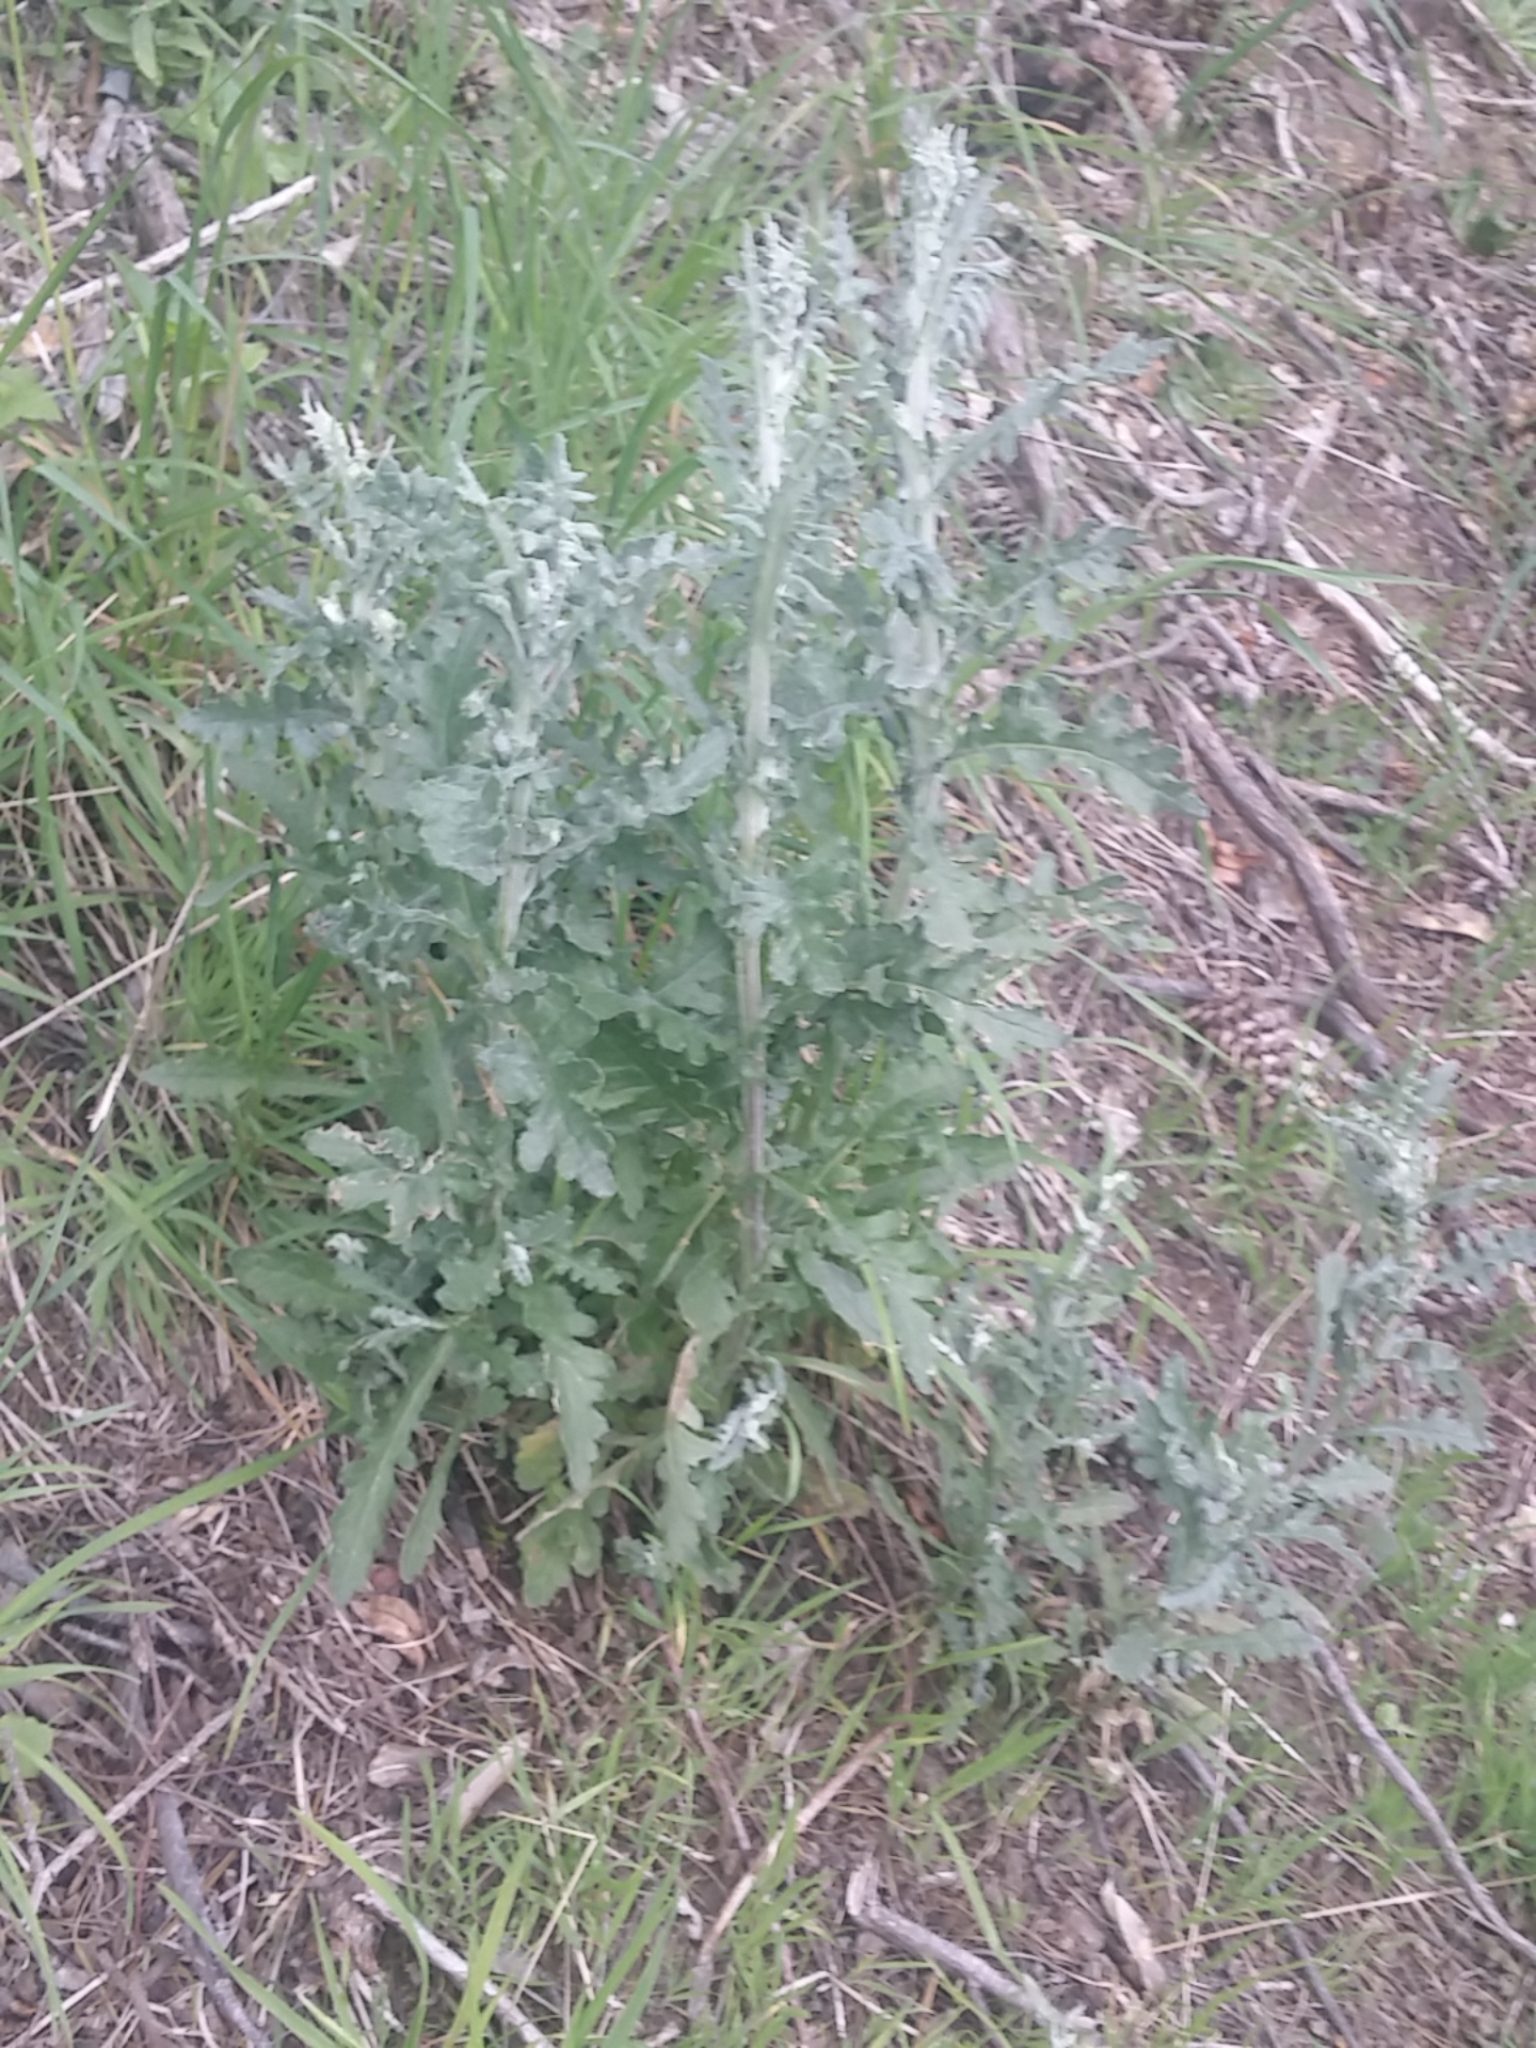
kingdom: Plantae
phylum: Tracheophyta
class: Magnoliopsida
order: Asterales
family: Asteraceae
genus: Senecio
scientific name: Senecio glomeratus
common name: Cutleaf burnweed
